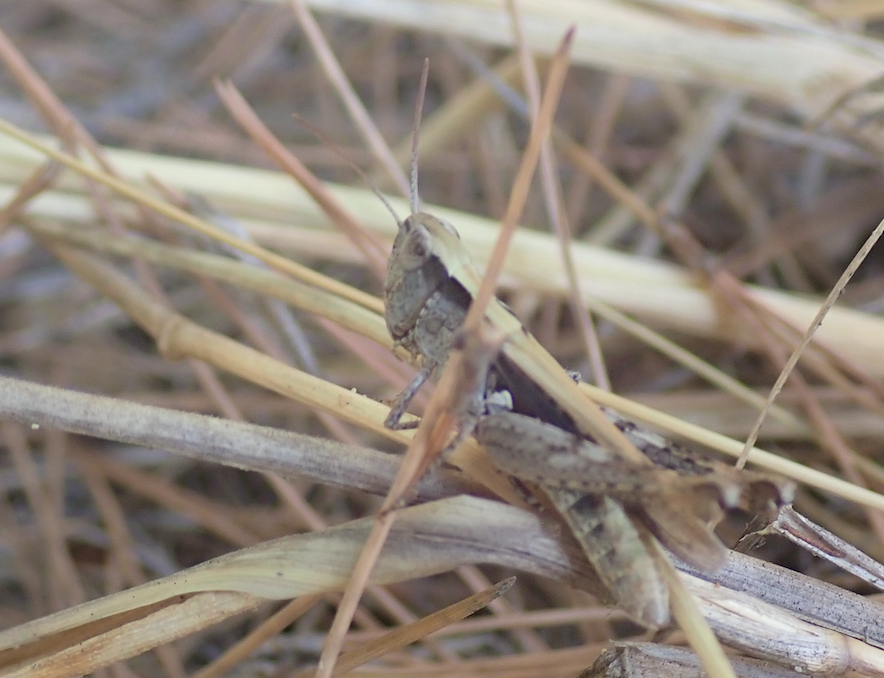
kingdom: Animalia
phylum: Arthropoda
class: Insecta
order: Orthoptera
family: Acrididae
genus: Chorthippus
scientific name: Chorthippus mollis
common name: Lesser field grasshopper
